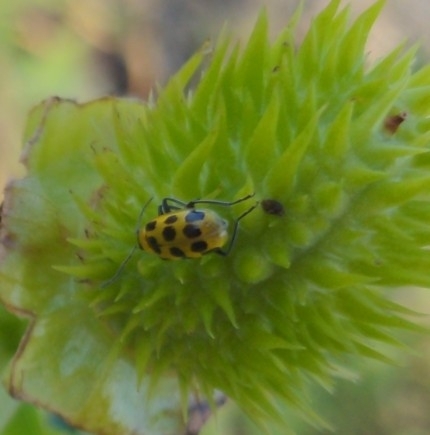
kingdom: Animalia
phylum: Arthropoda
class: Insecta
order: Coleoptera
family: Chrysomelidae
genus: Diabrotica
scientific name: Diabrotica undecimpunctata
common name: Spotted cucumber beetle
